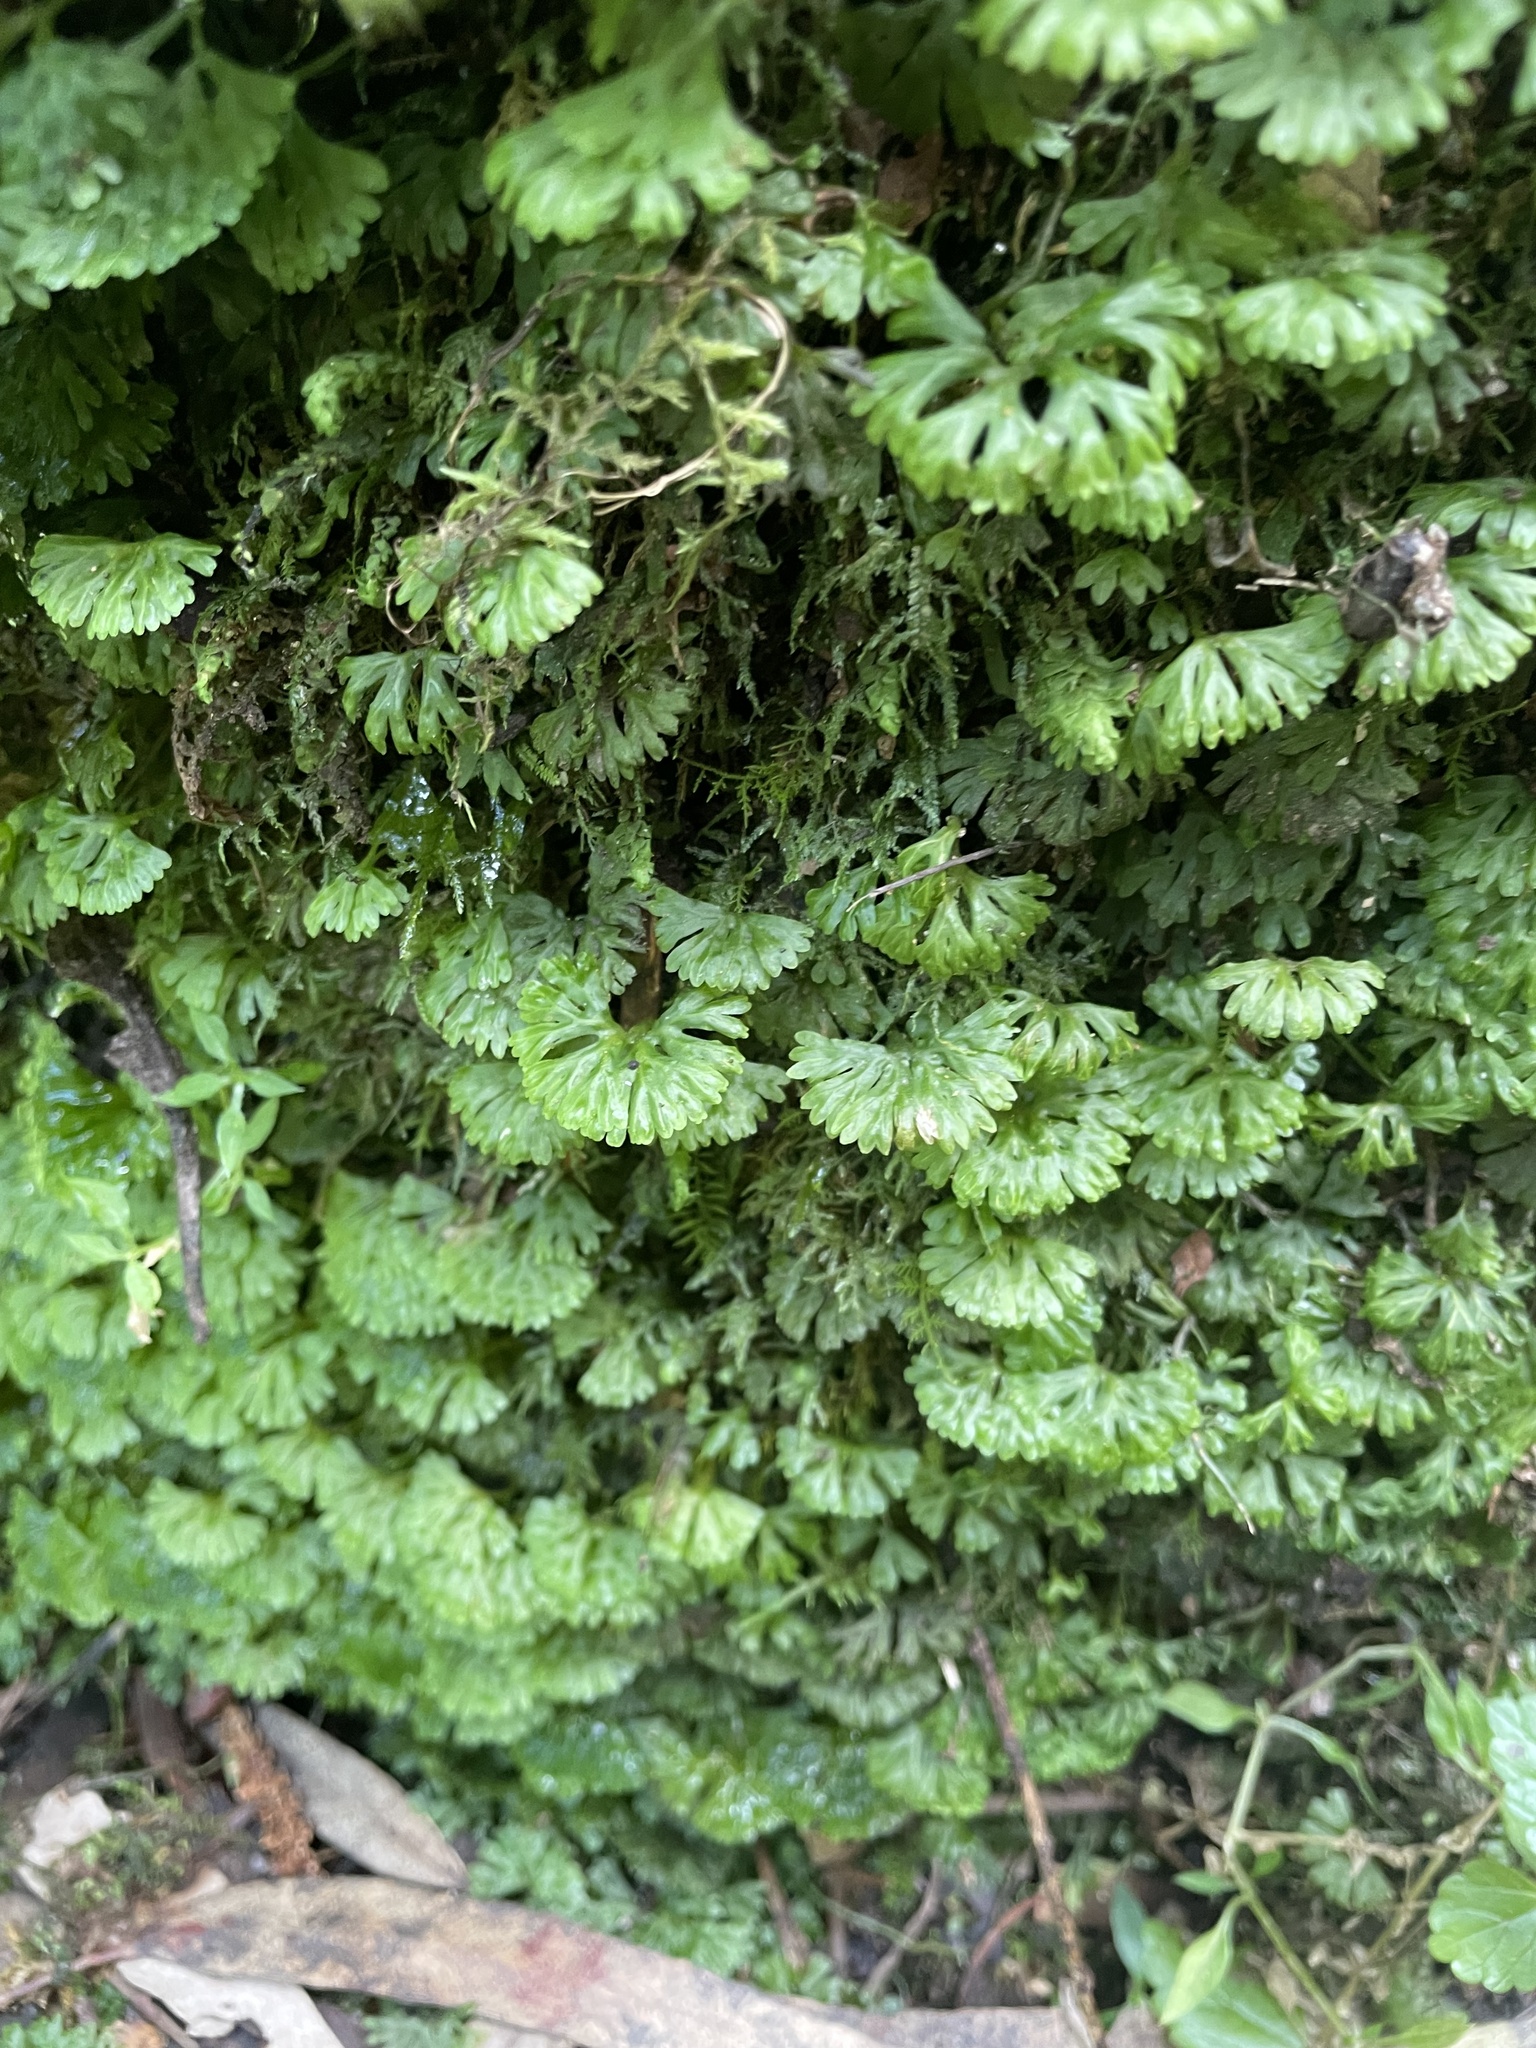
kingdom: Plantae
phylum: Marchantiophyta
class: Jungermanniopsida
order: Pallaviciniales
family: Hymenophytaceae
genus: Hymenophyton
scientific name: Hymenophyton flabellatum
